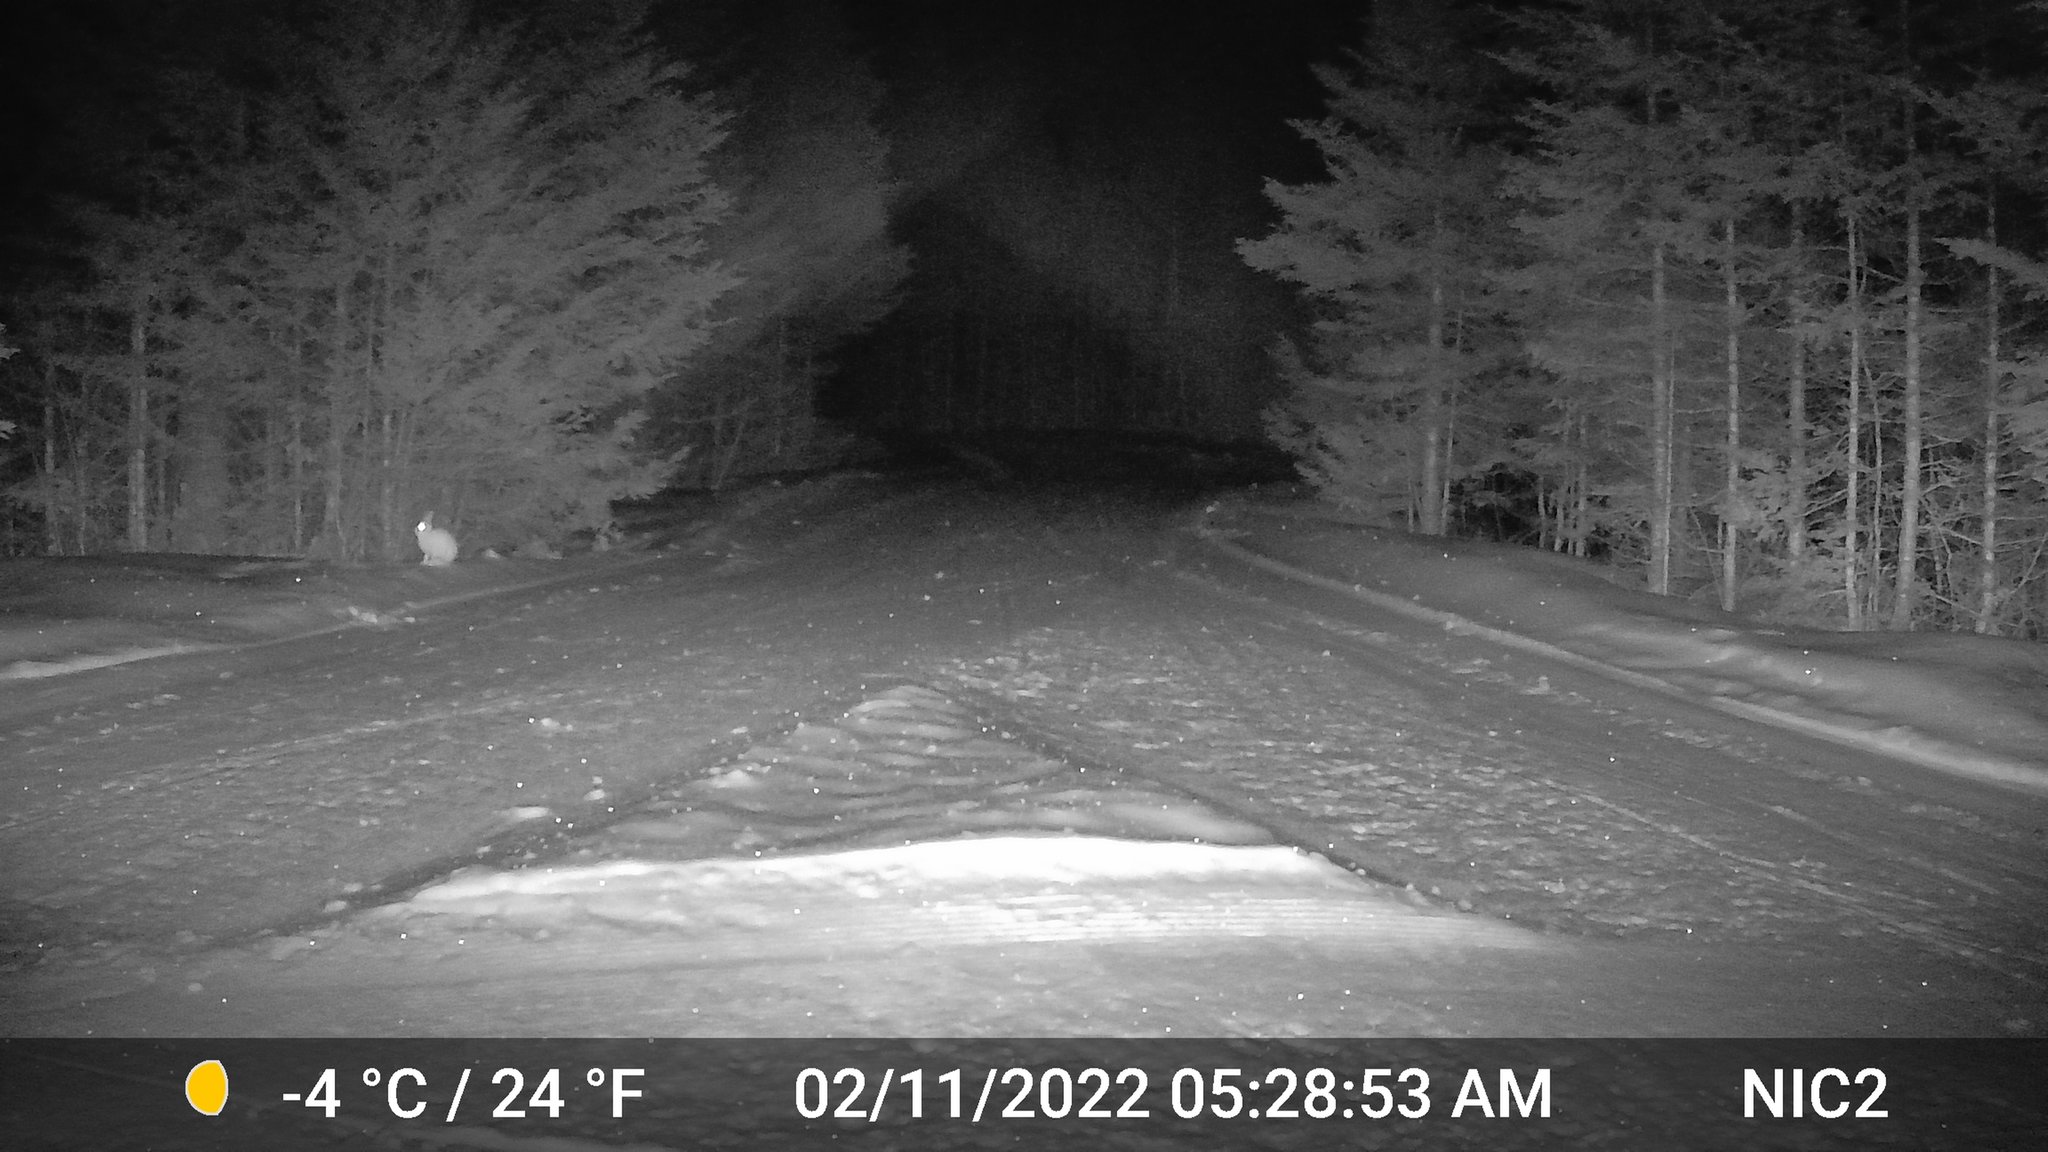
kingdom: Animalia
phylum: Chordata
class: Mammalia
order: Lagomorpha
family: Leporidae
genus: Lepus
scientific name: Lepus americanus
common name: Snowshoe hare
